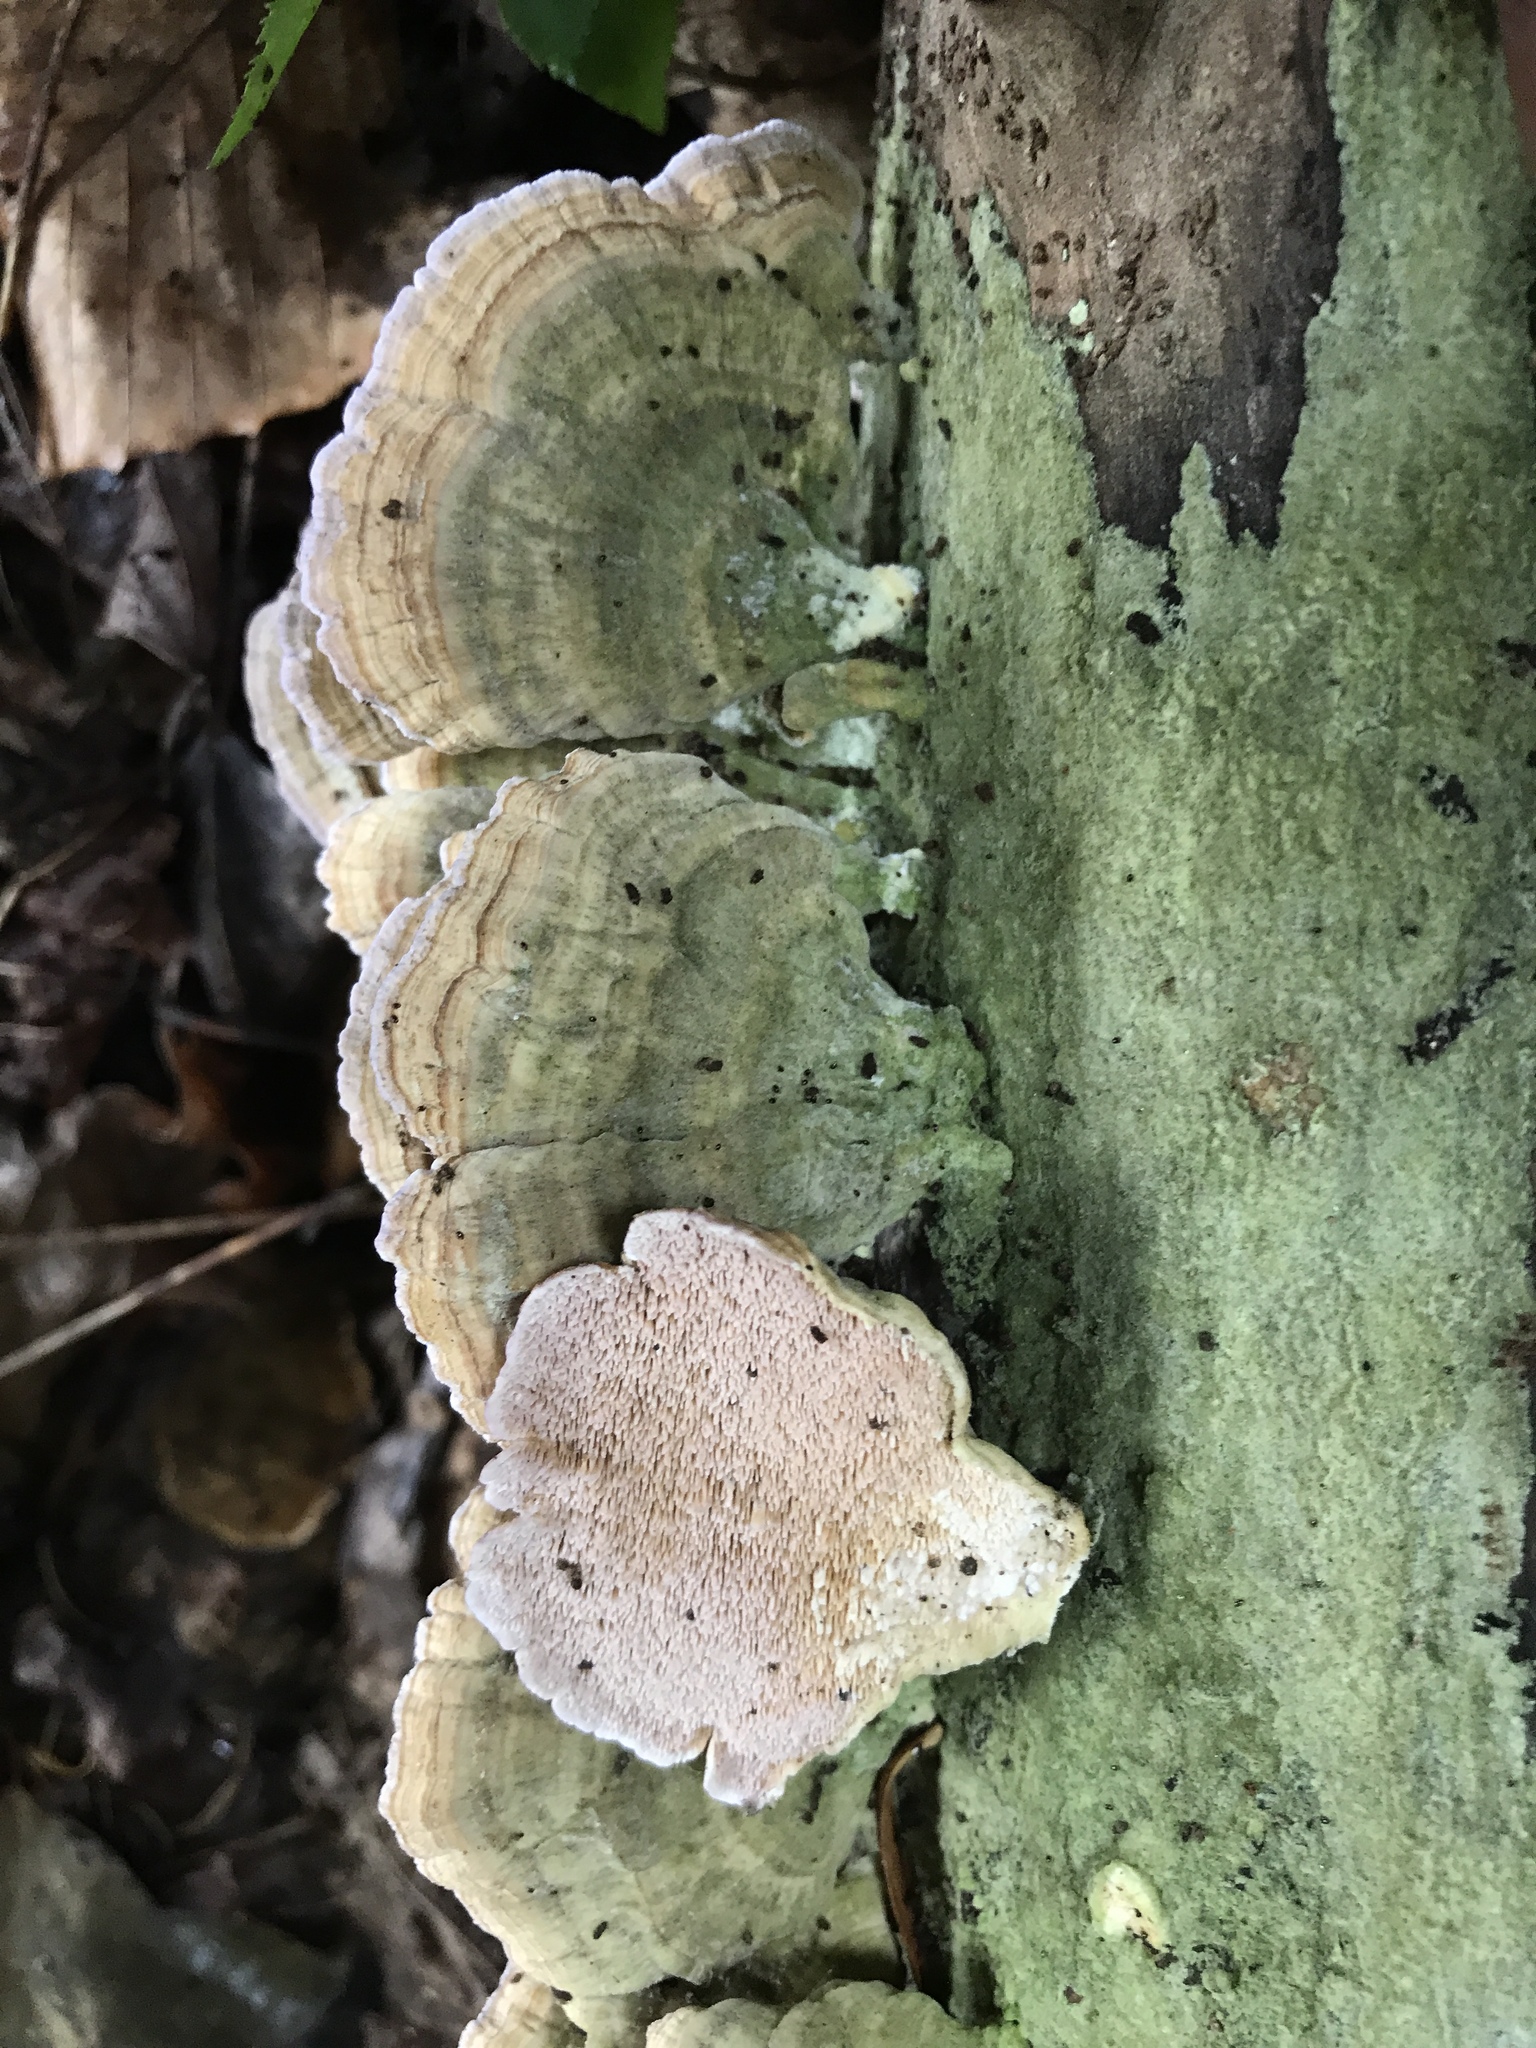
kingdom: Fungi
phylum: Basidiomycota
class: Agaricomycetes
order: Hymenochaetales
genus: Trichaptum
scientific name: Trichaptum biforme
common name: Violet-toothed polypore
